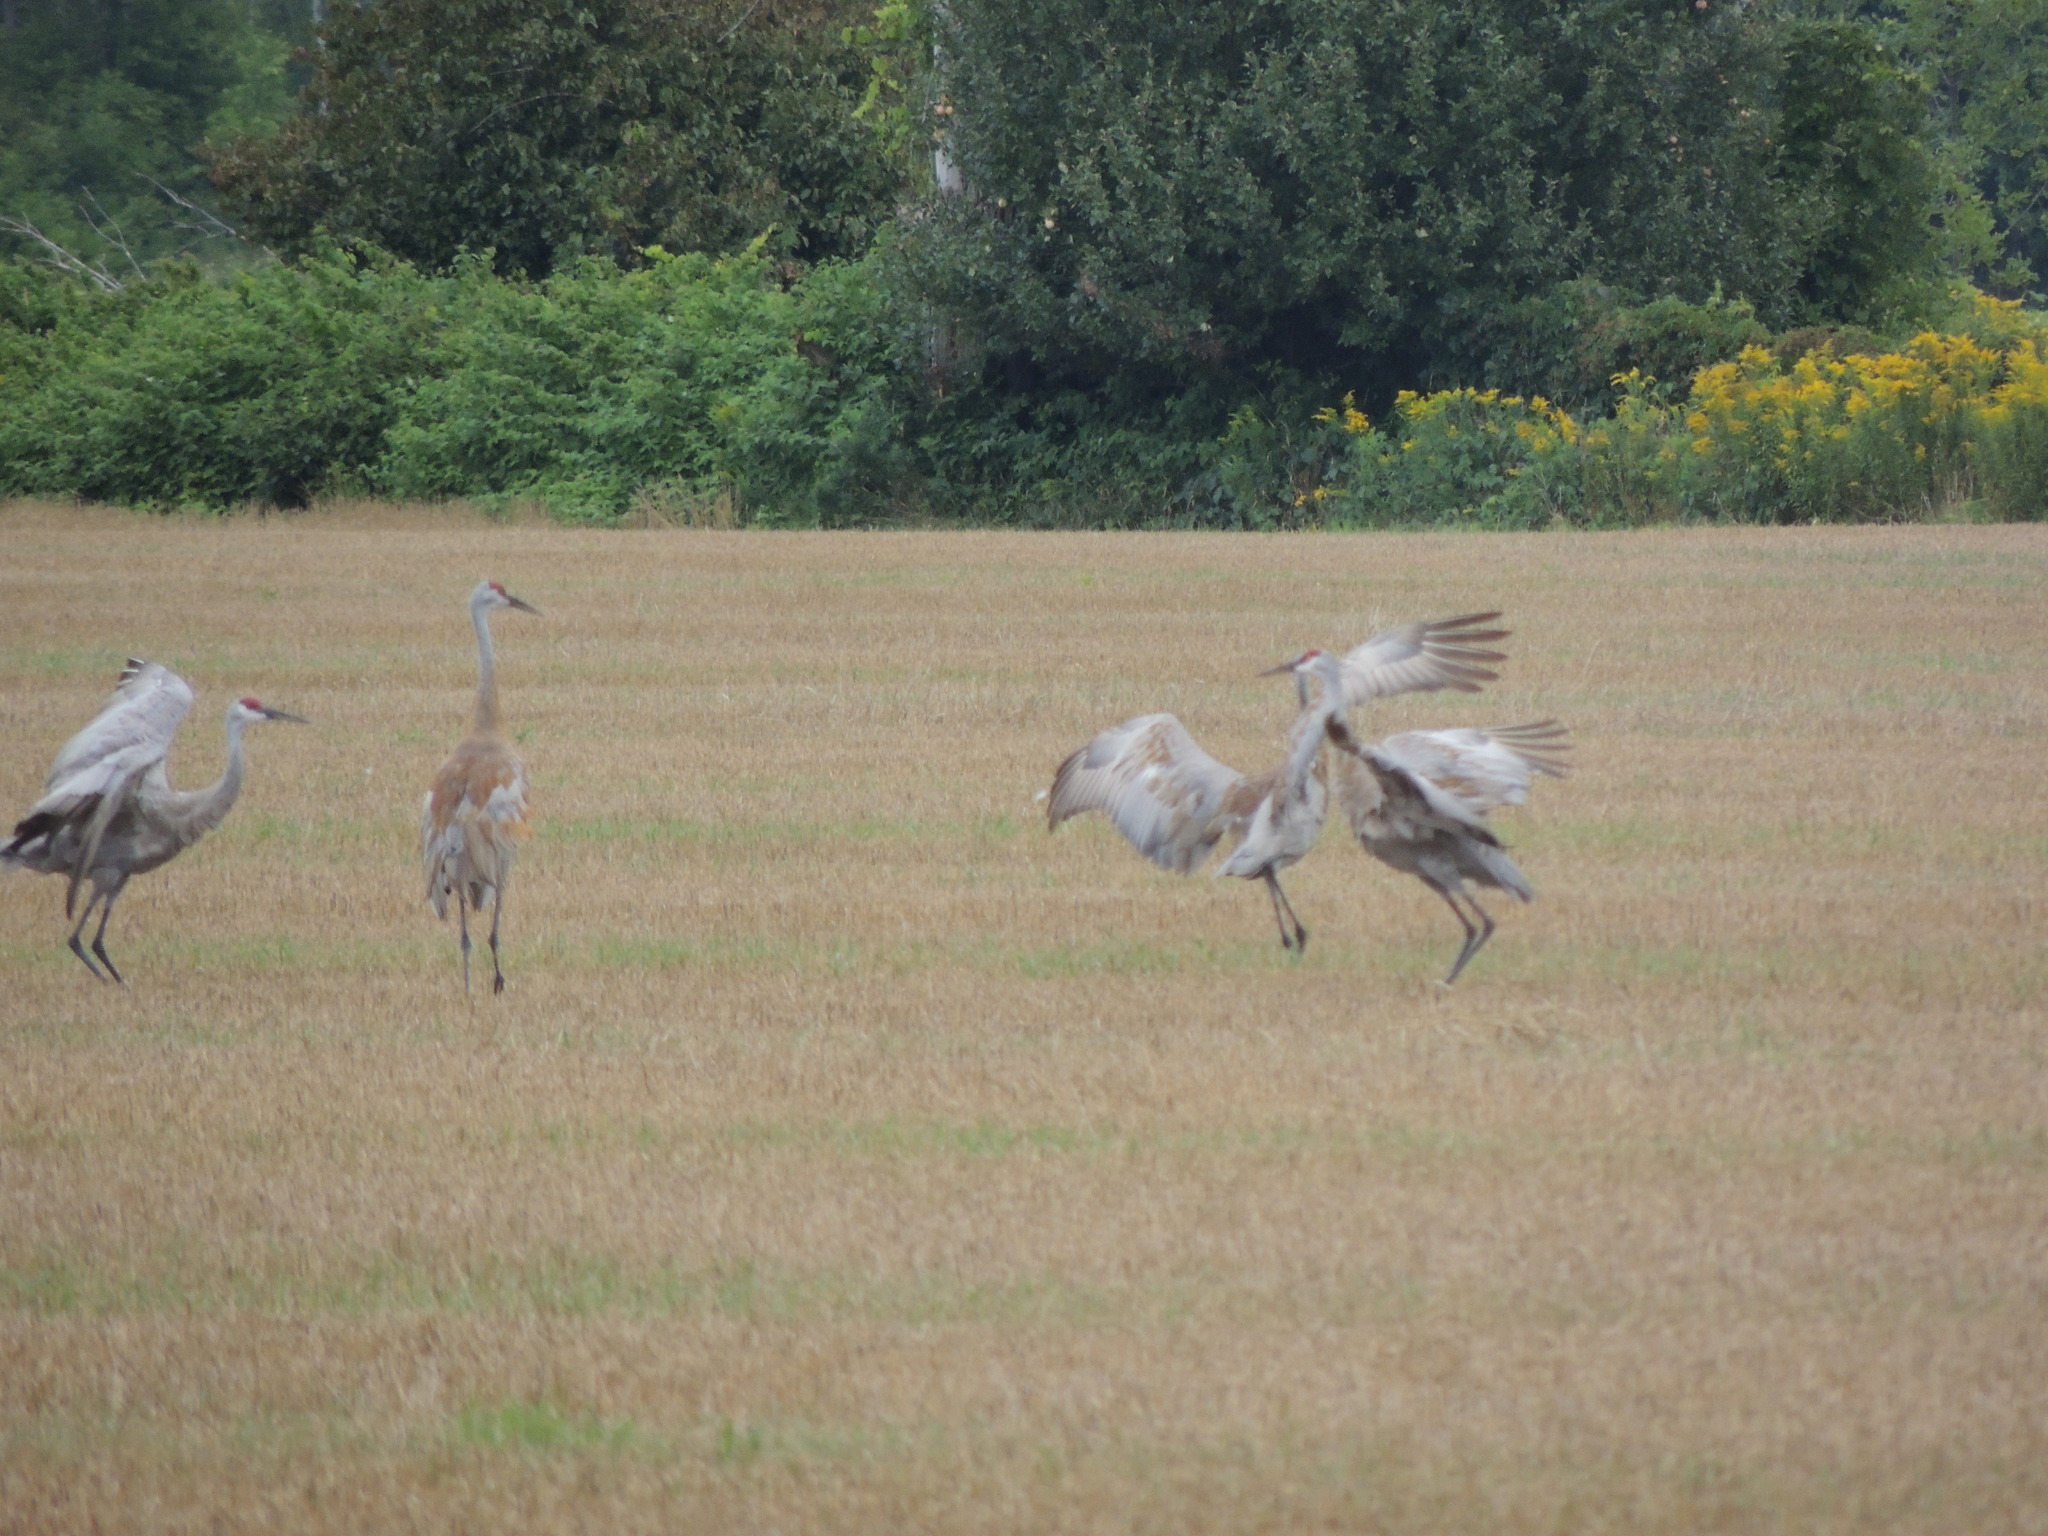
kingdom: Animalia
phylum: Chordata
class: Aves
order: Gruiformes
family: Gruidae
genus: Grus
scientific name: Grus canadensis
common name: Sandhill crane
